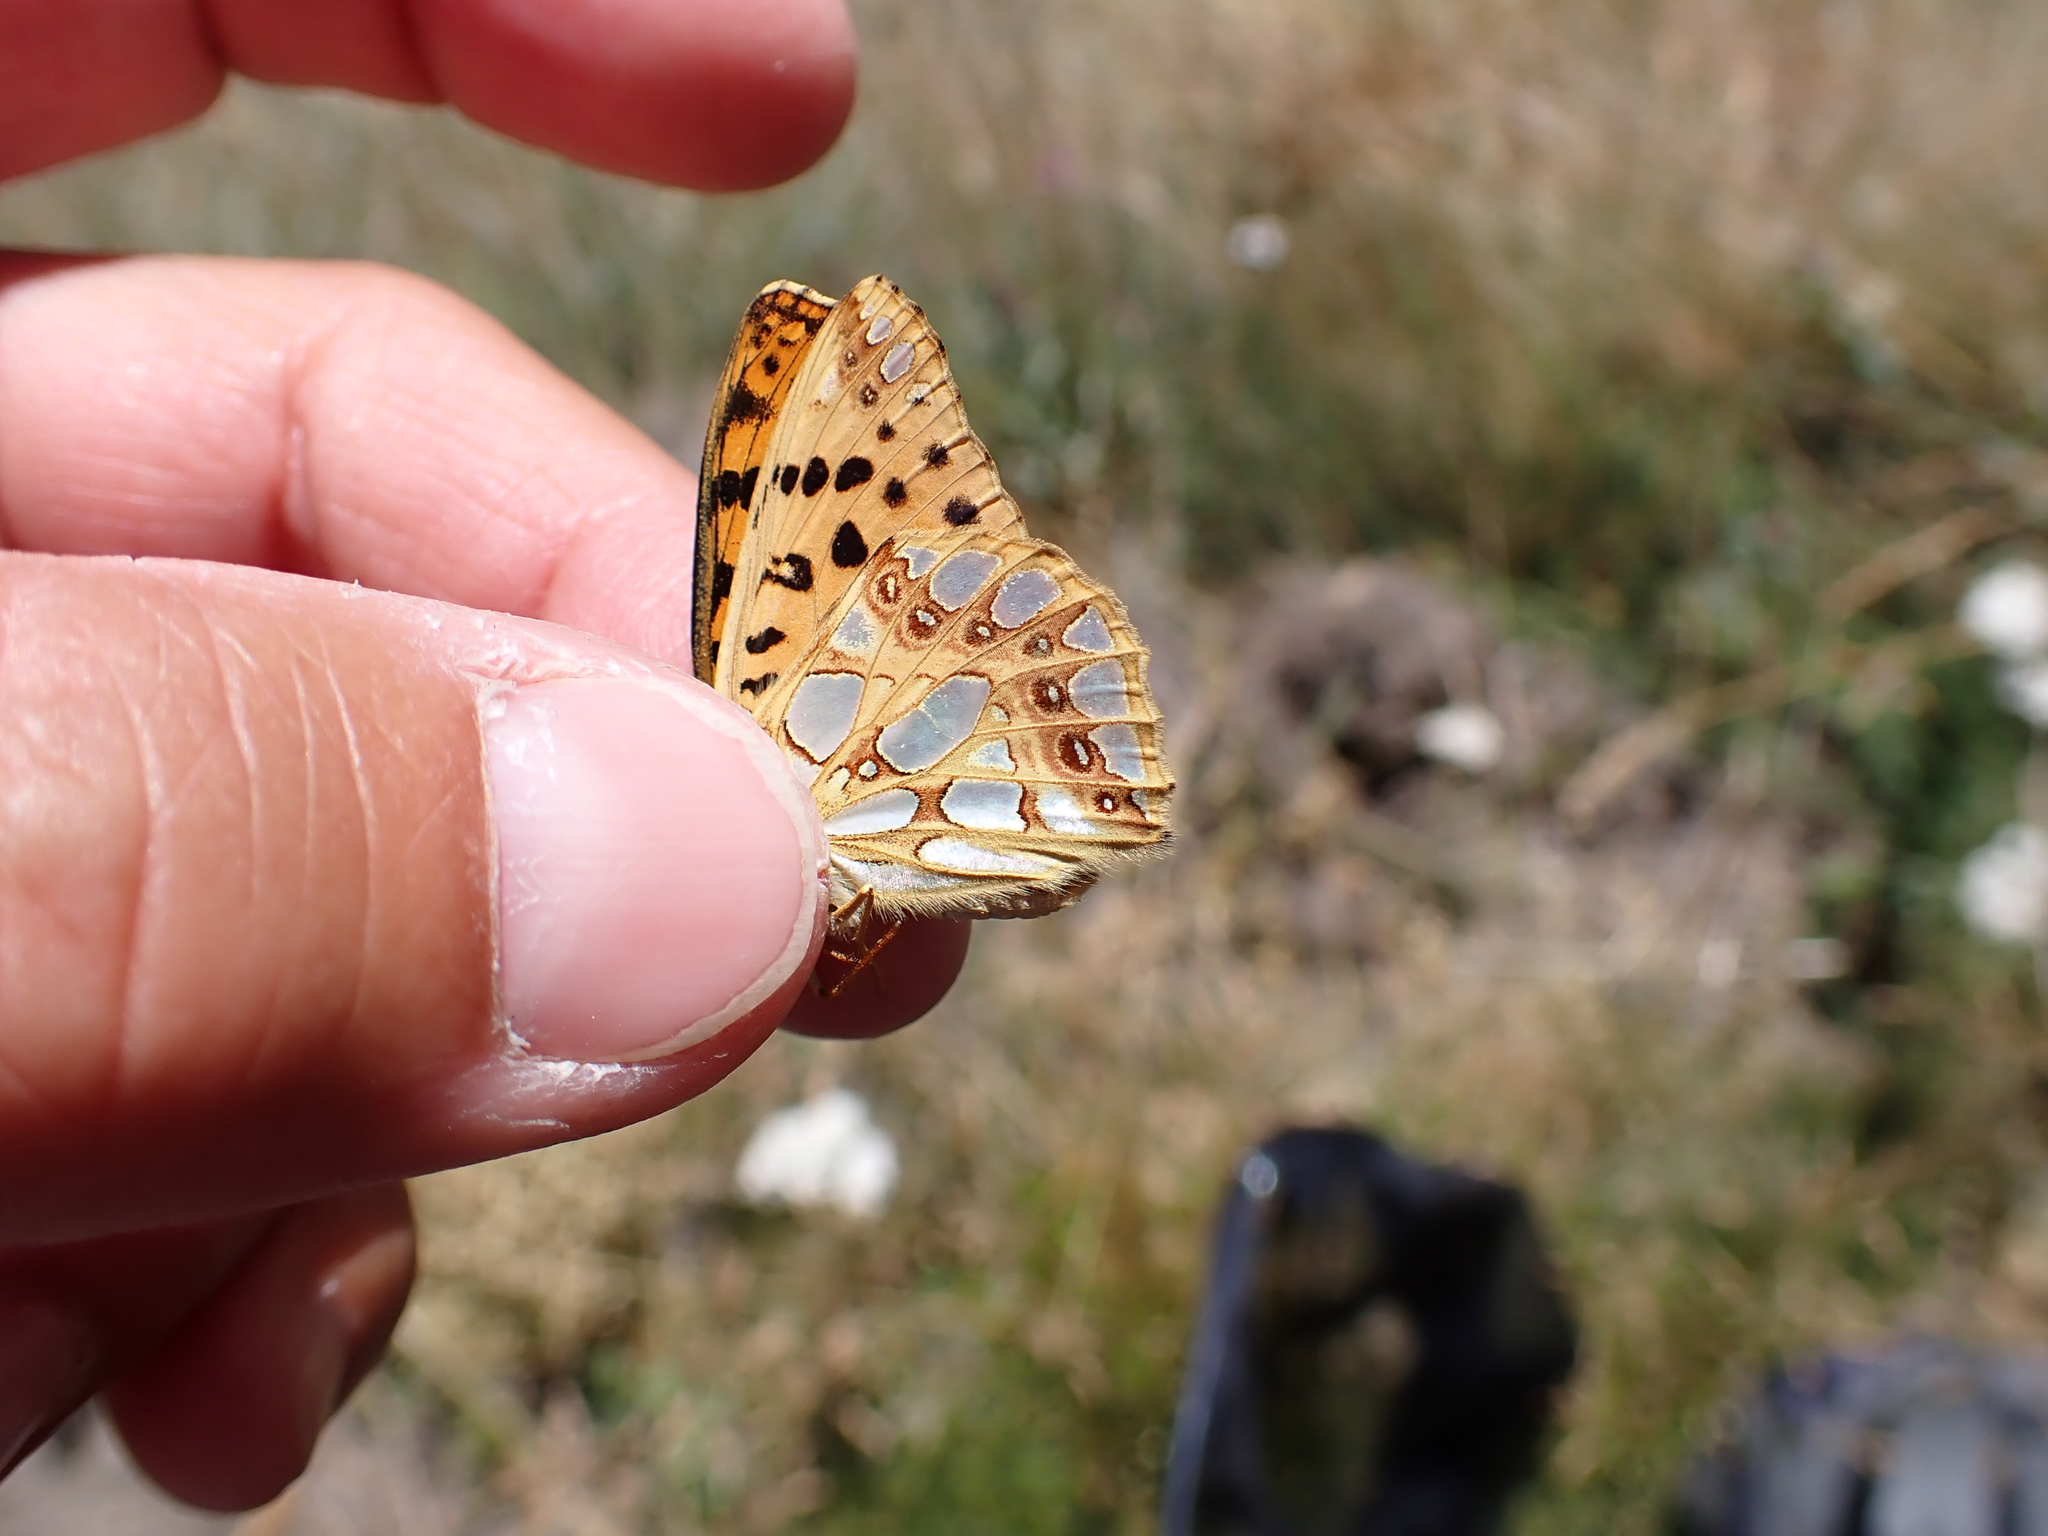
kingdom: Animalia
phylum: Arthropoda
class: Insecta
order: Lepidoptera
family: Nymphalidae
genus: Issoria
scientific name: Issoria lathonia
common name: Queen of spain fritillary
